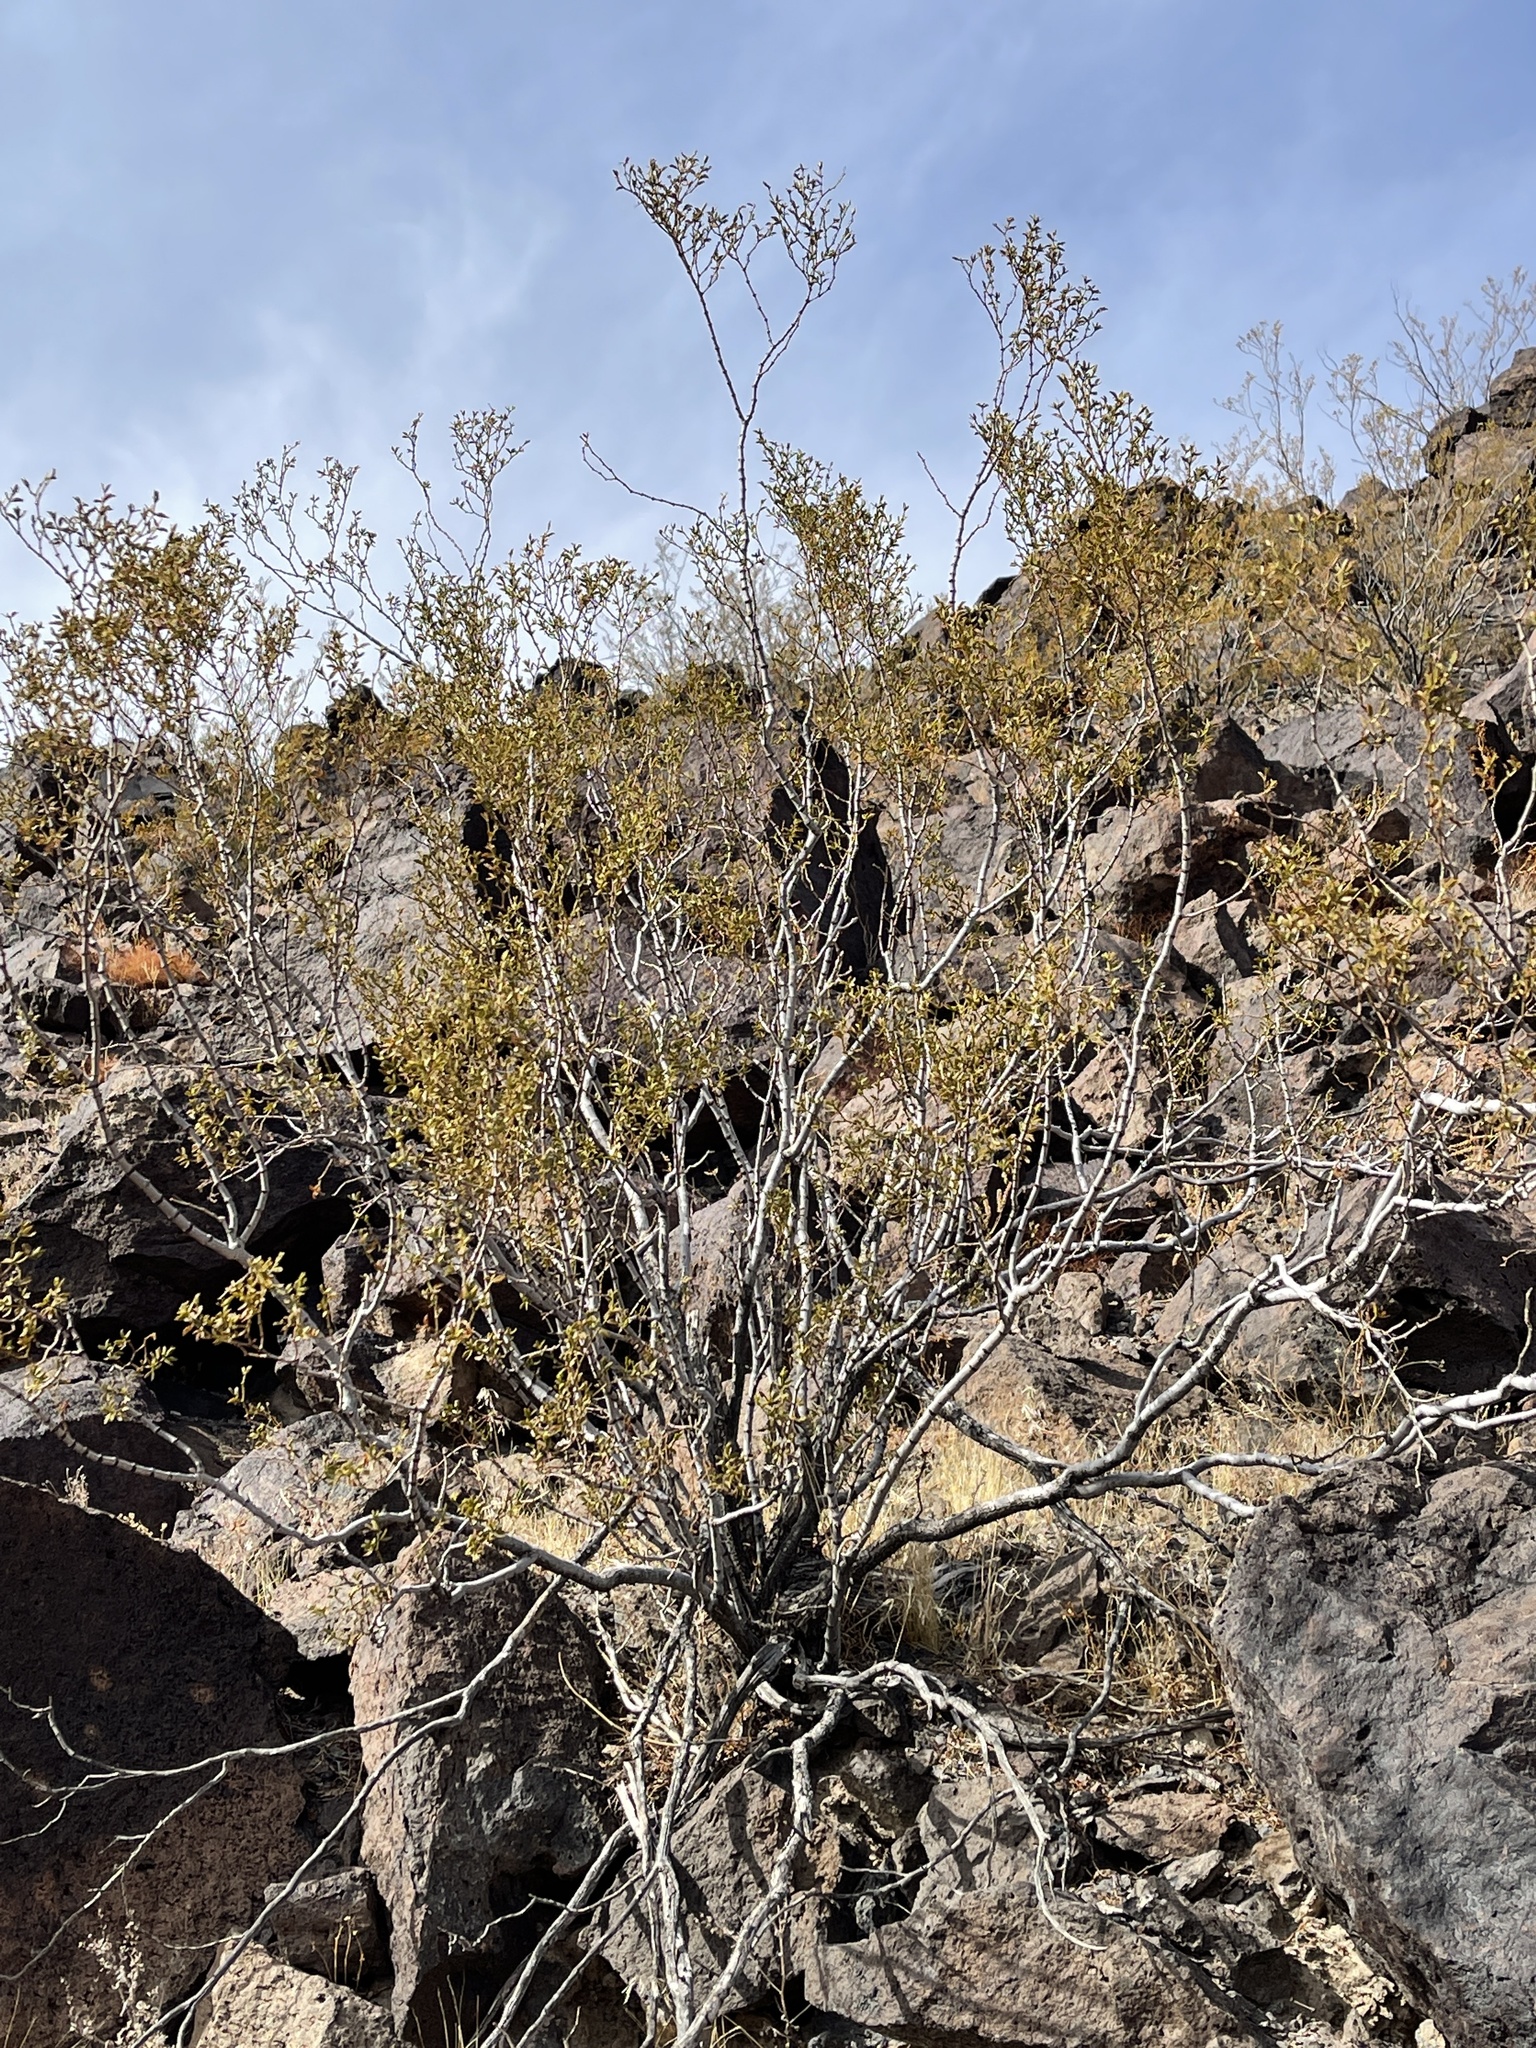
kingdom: Plantae
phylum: Tracheophyta
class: Magnoliopsida
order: Zygophyllales
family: Zygophyllaceae
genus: Larrea
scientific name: Larrea tridentata
